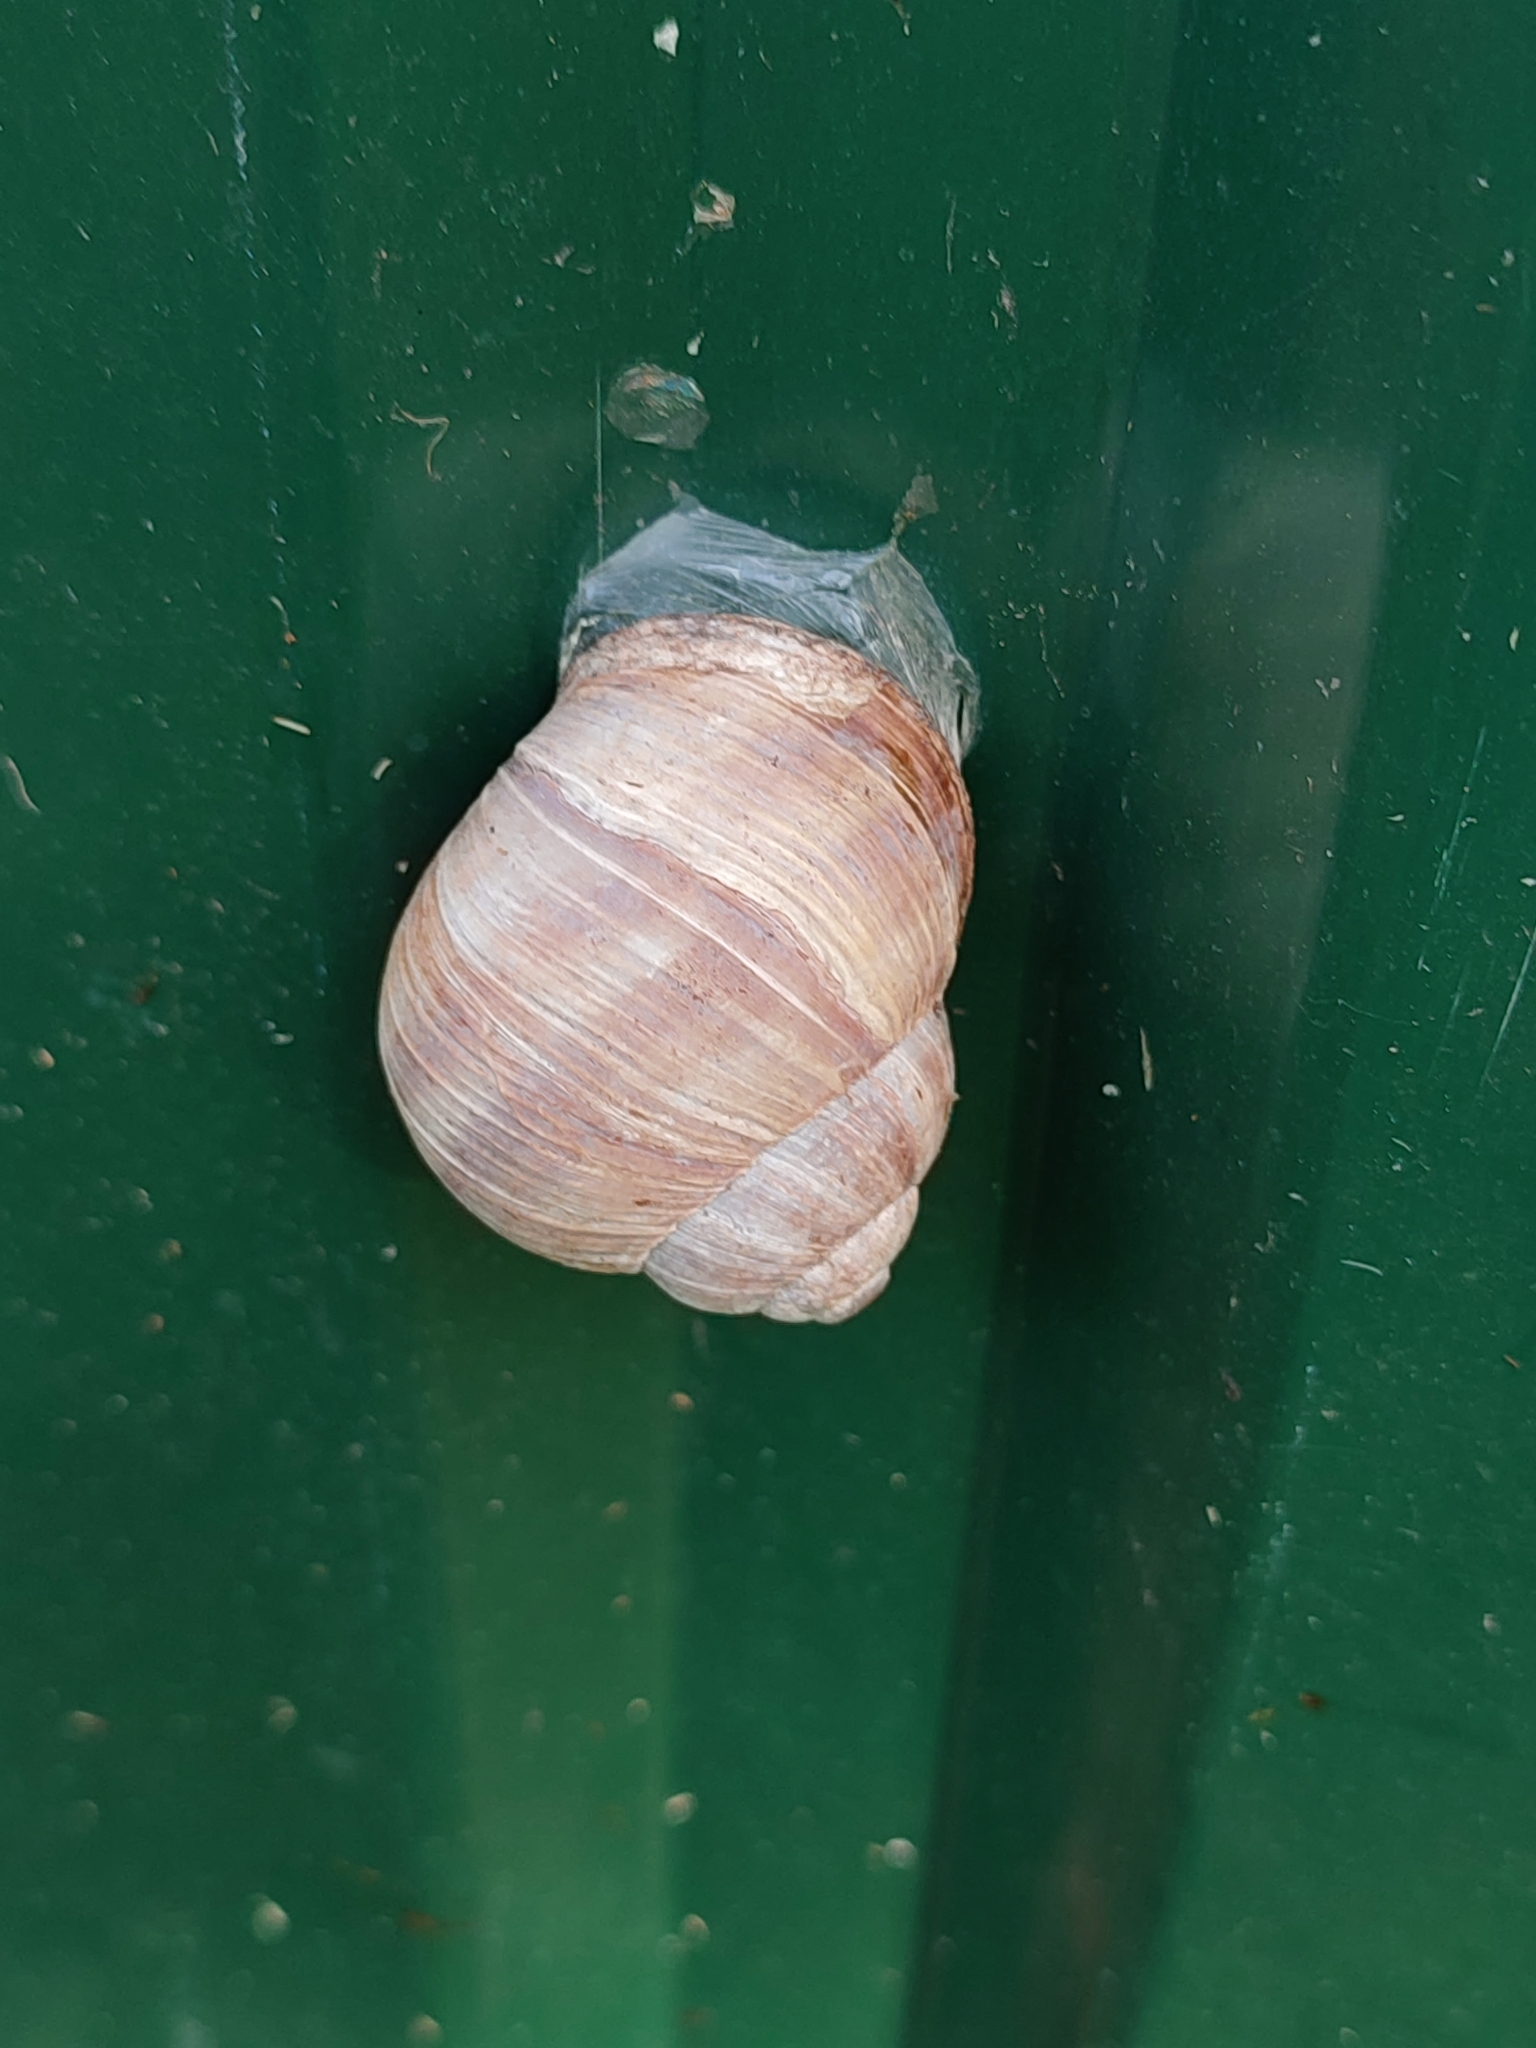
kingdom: Animalia
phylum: Mollusca
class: Gastropoda
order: Stylommatophora
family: Helicidae
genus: Helix
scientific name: Helix pomatia
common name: Roman snail
